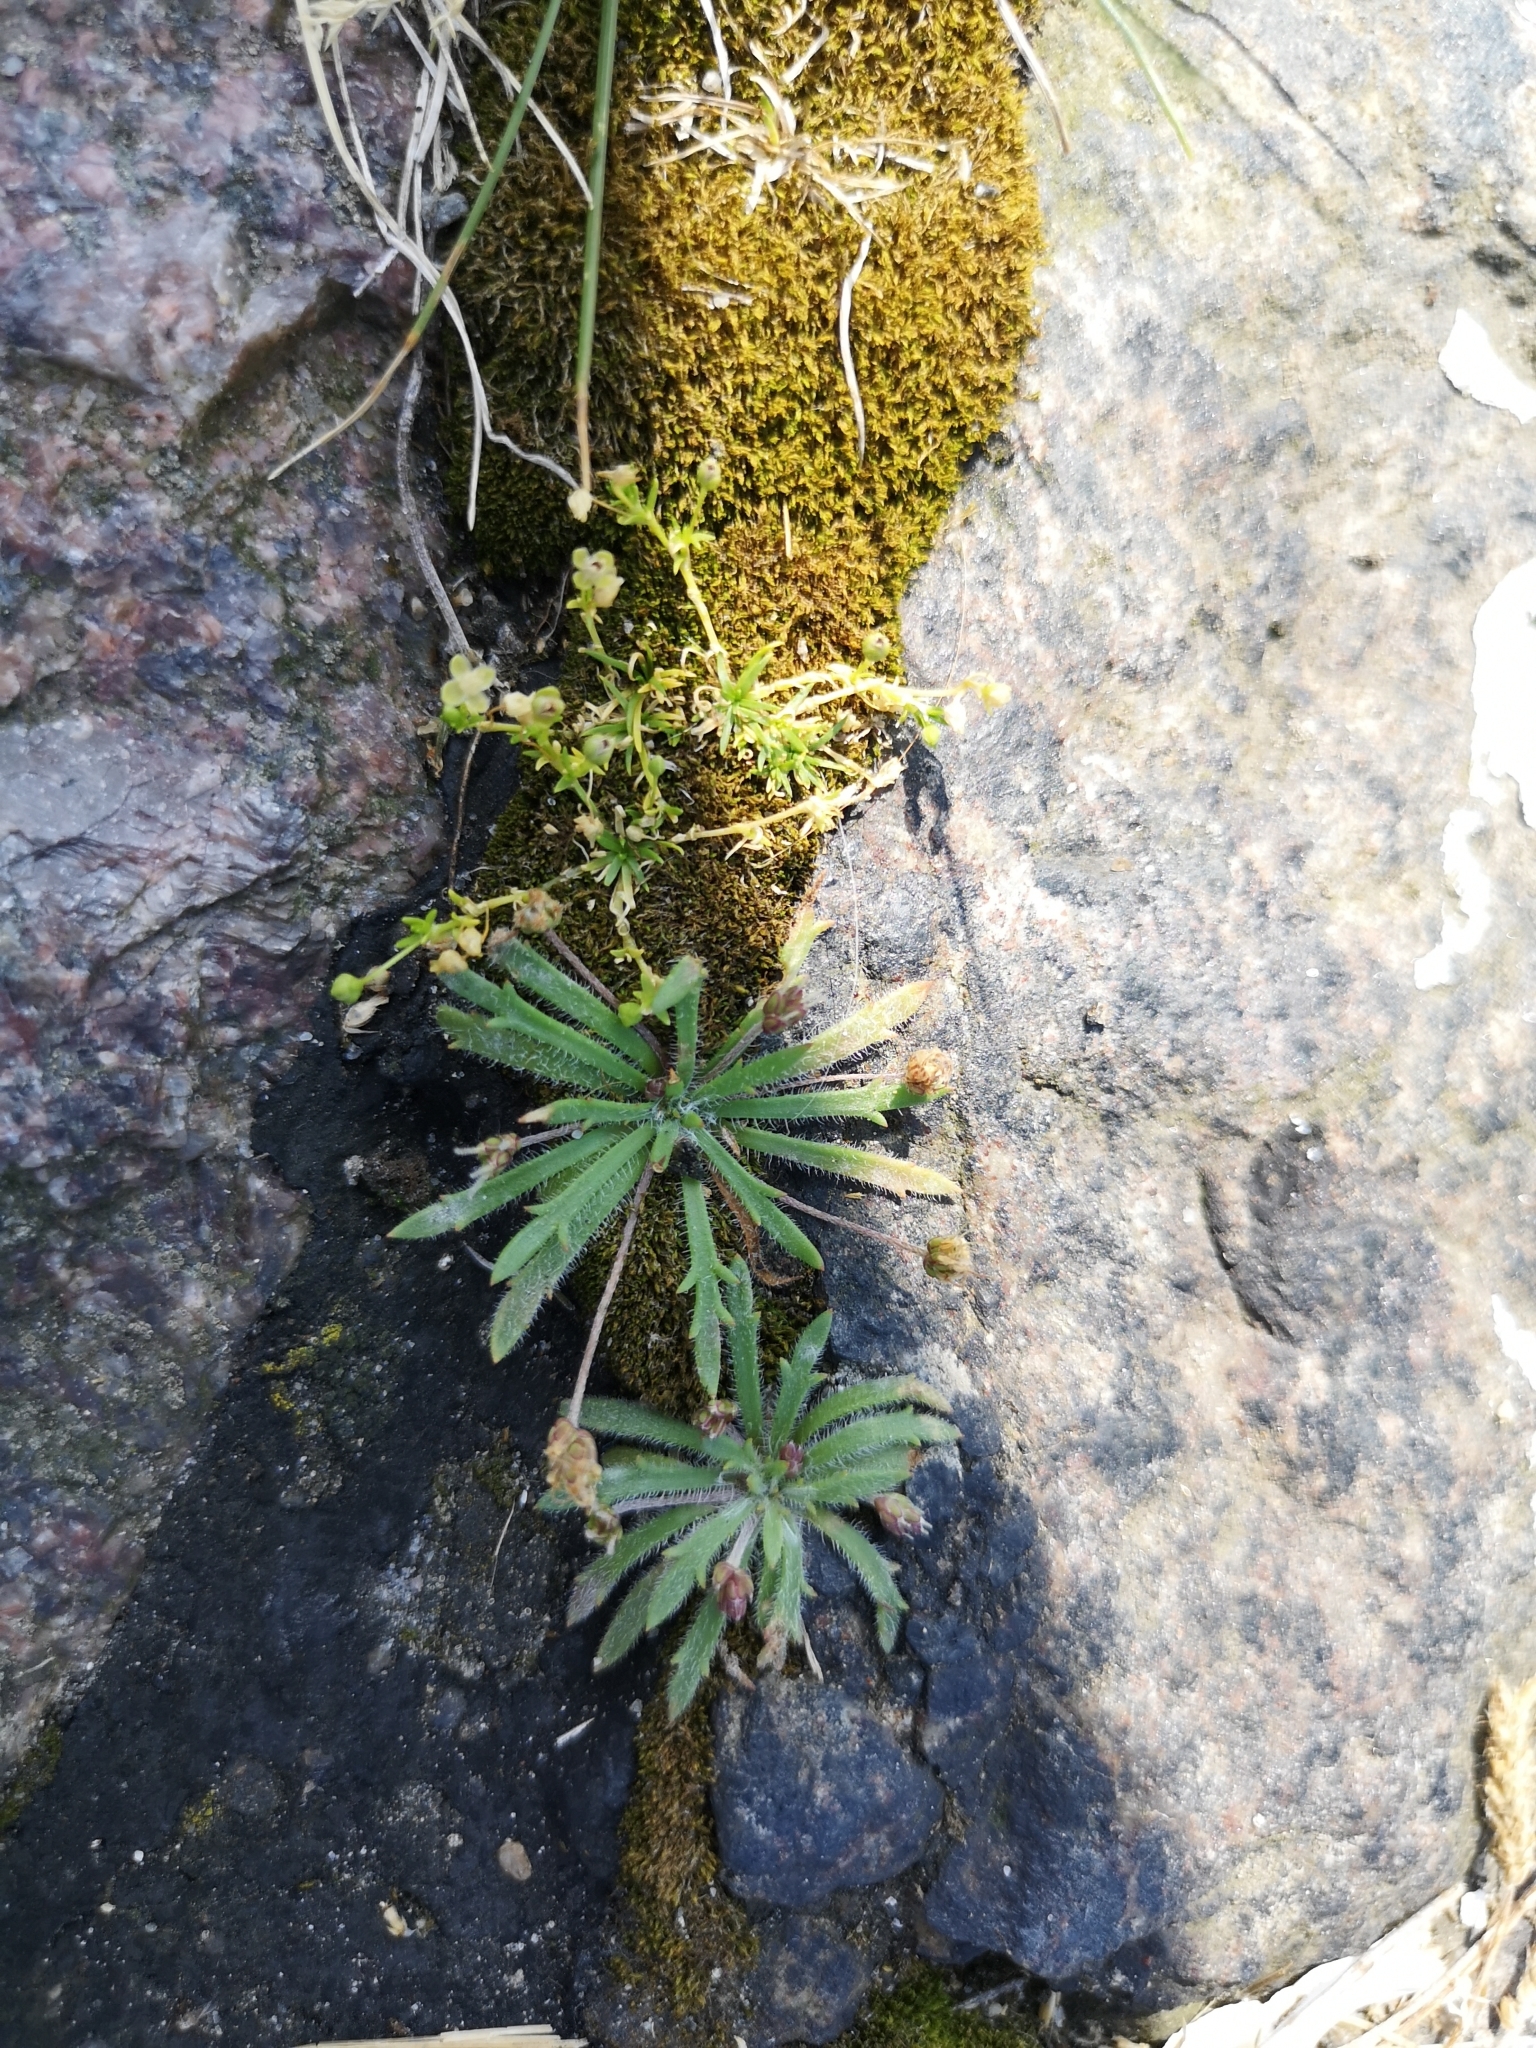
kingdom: Plantae
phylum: Tracheophyta
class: Magnoliopsida
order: Lamiales
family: Plantaginaceae
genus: Plantago
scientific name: Plantago coronopus
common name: Buck's-horn plantain
